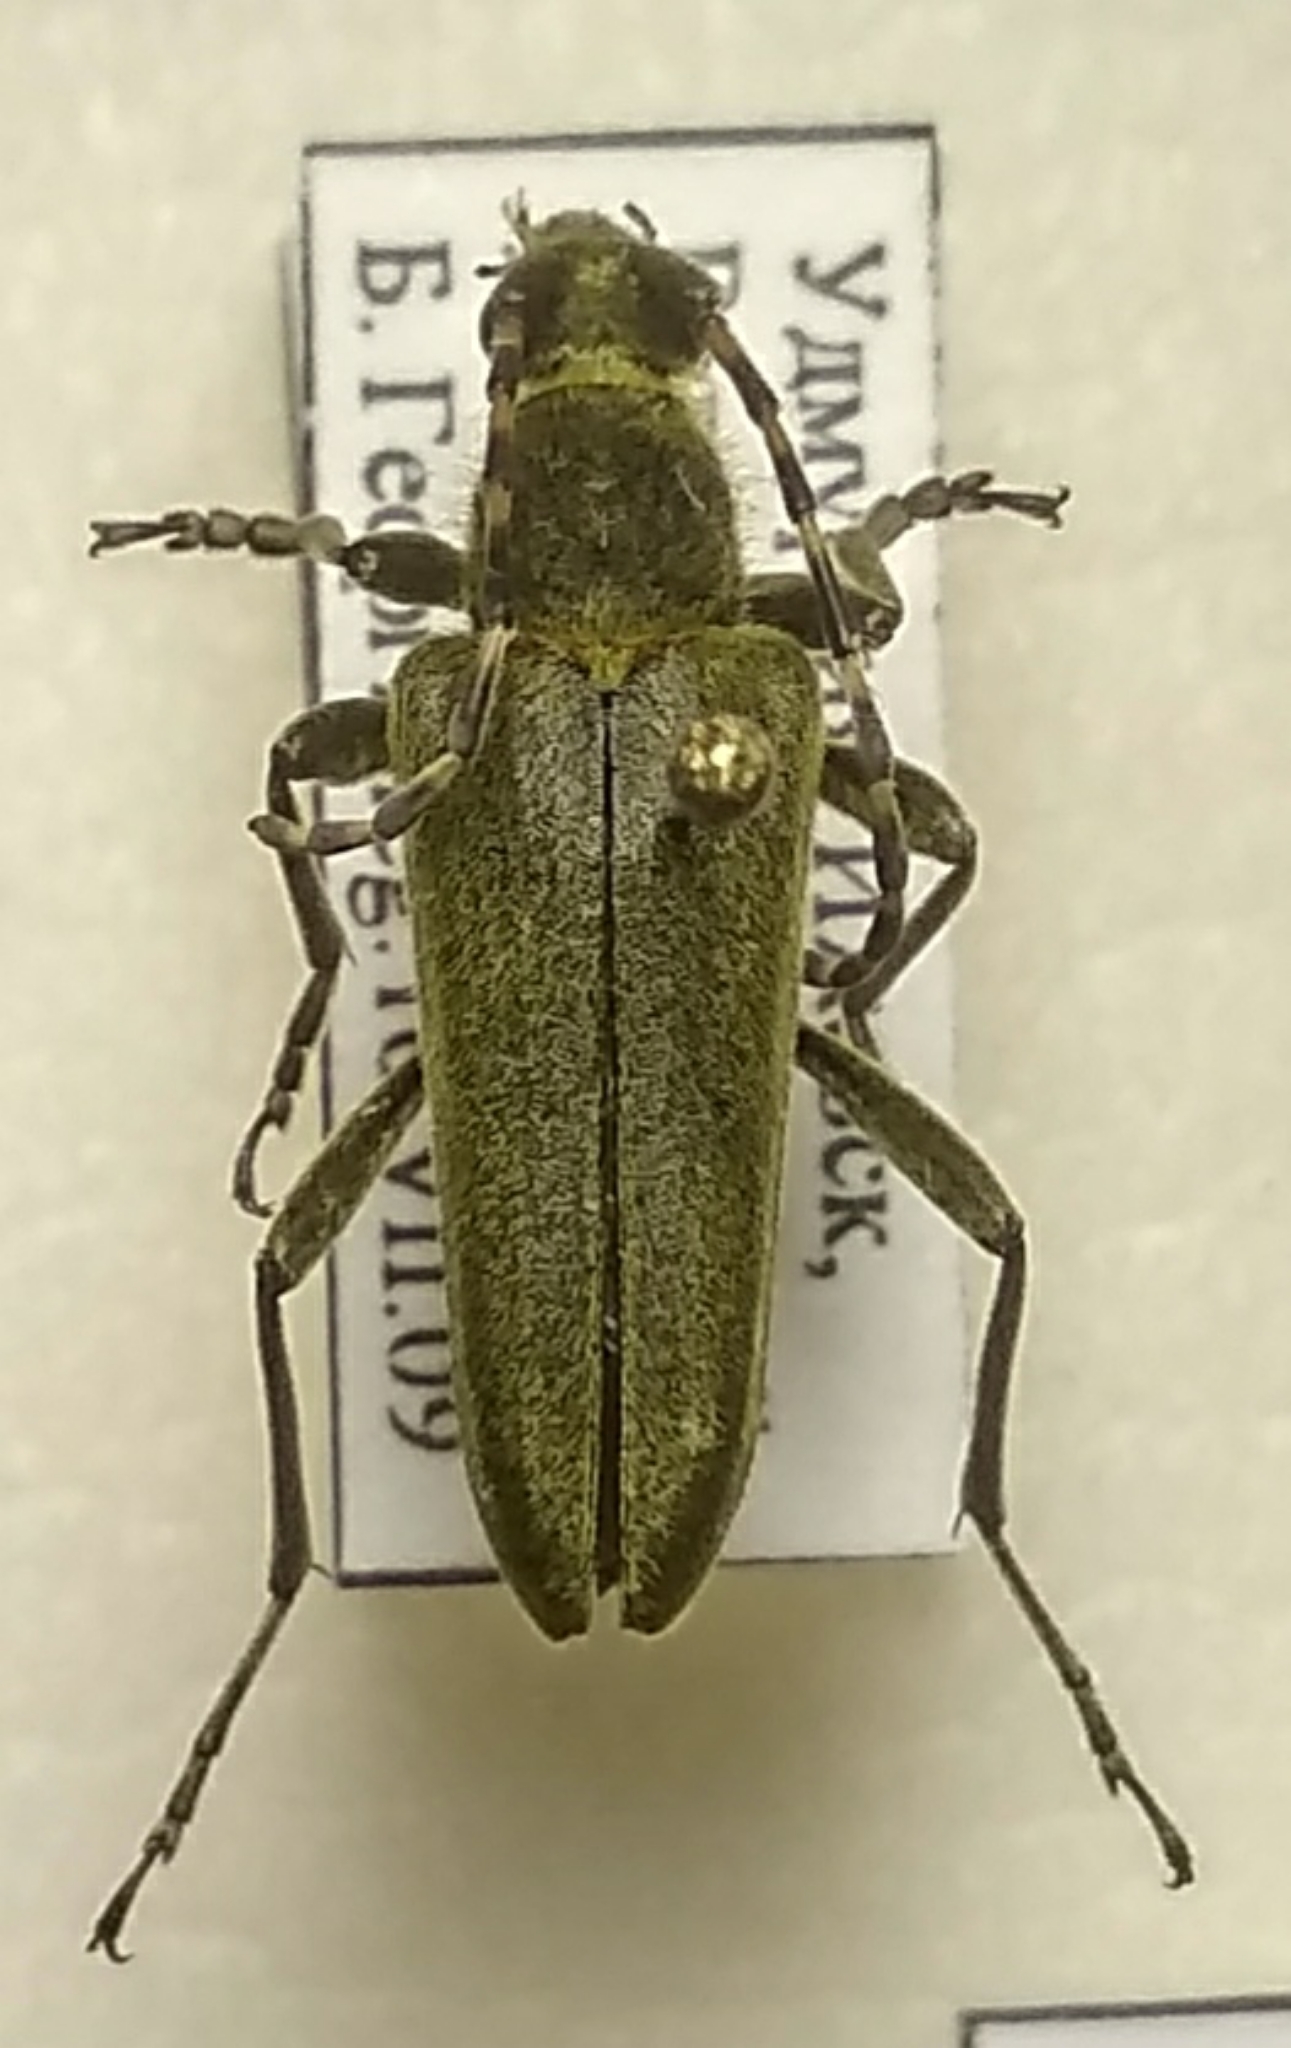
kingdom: Animalia
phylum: Arthropoda
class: Insecta
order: Coleoptera
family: Cerambycidae
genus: Lepturobosca
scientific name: Lepturobosca virens
